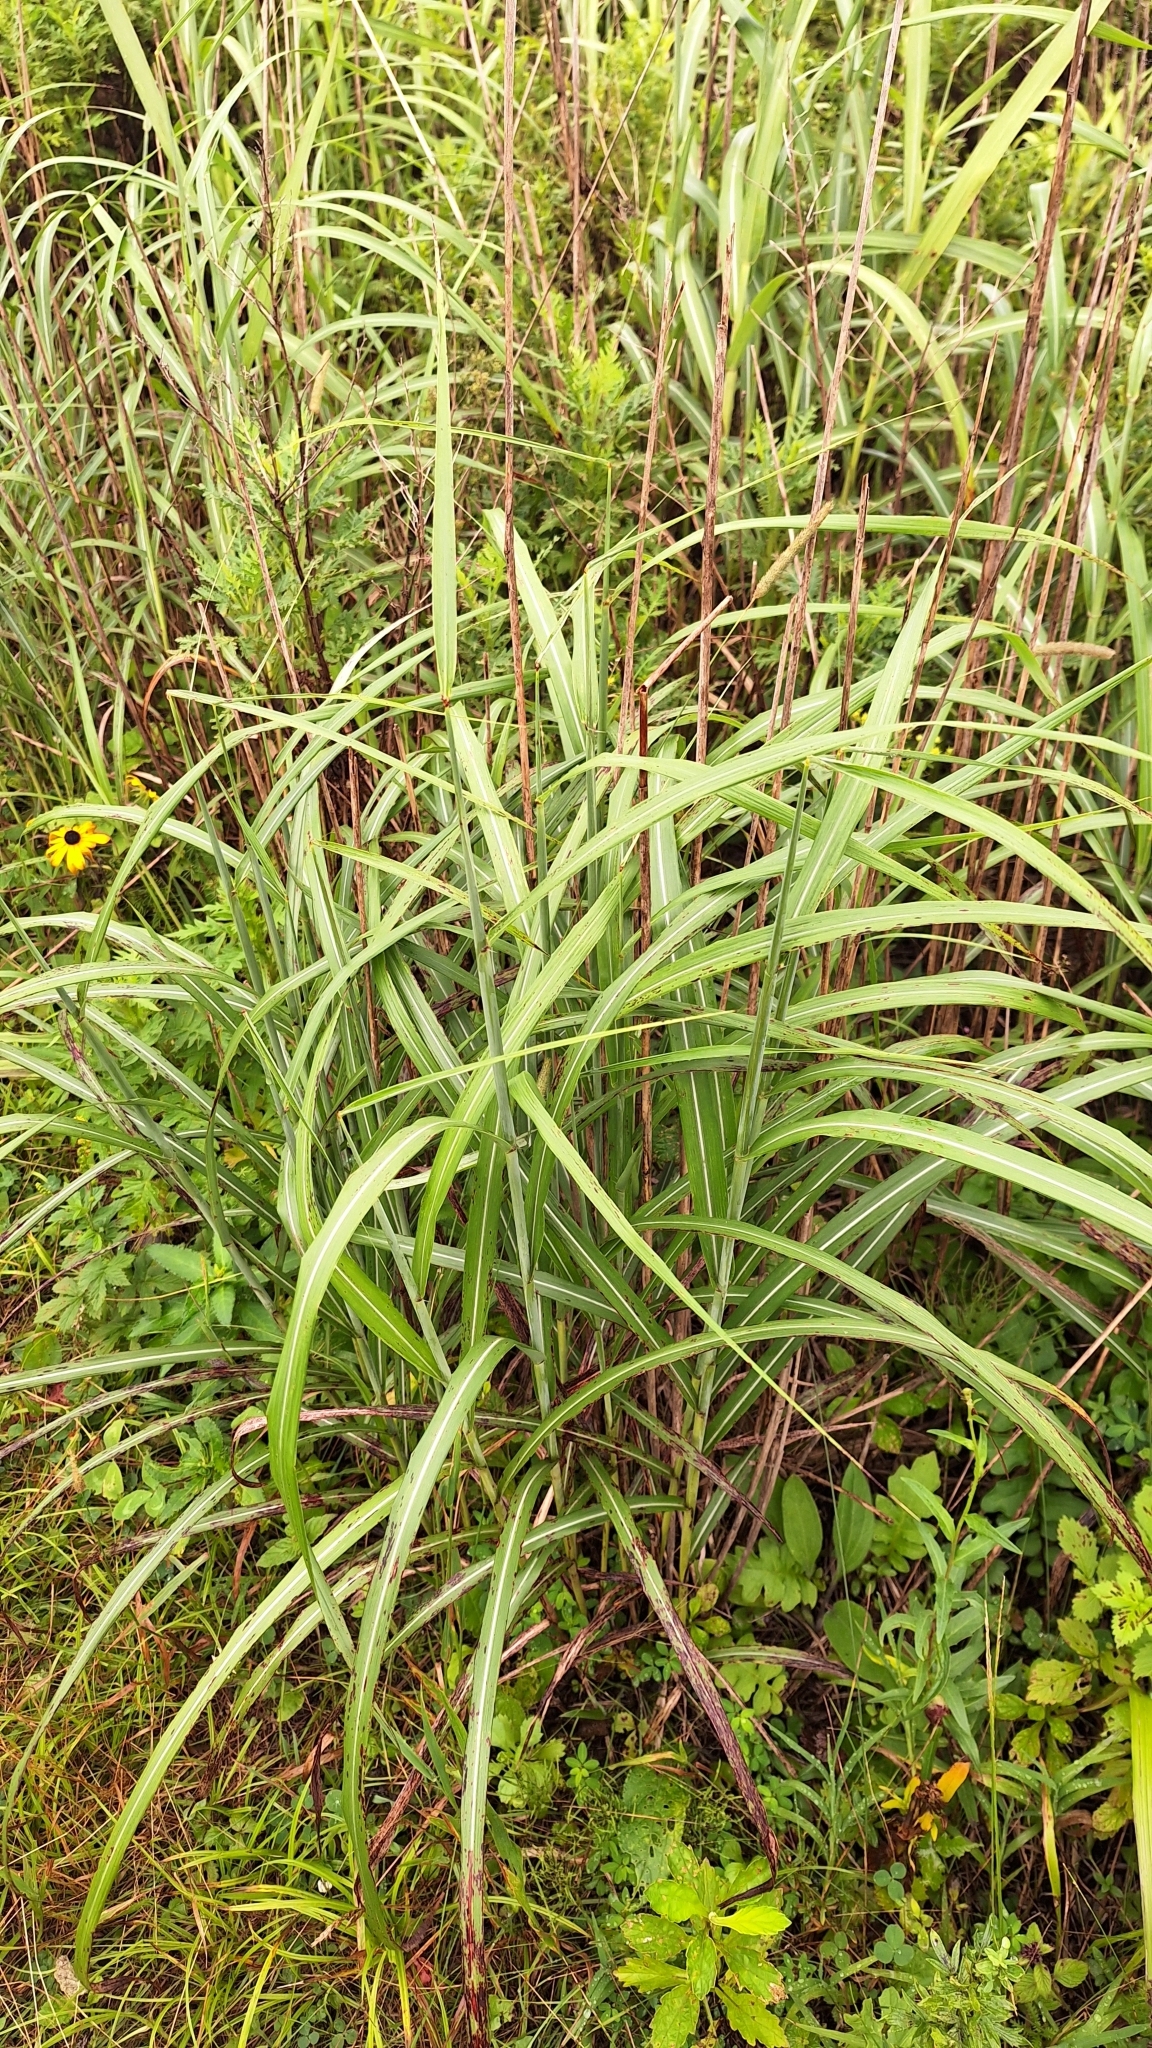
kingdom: Plantae
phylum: Tracheophyta
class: Liliopsida
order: Poales
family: Poaceae
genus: Miscanthus
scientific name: Miscanthus sinensis
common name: Chinese silvergrass
